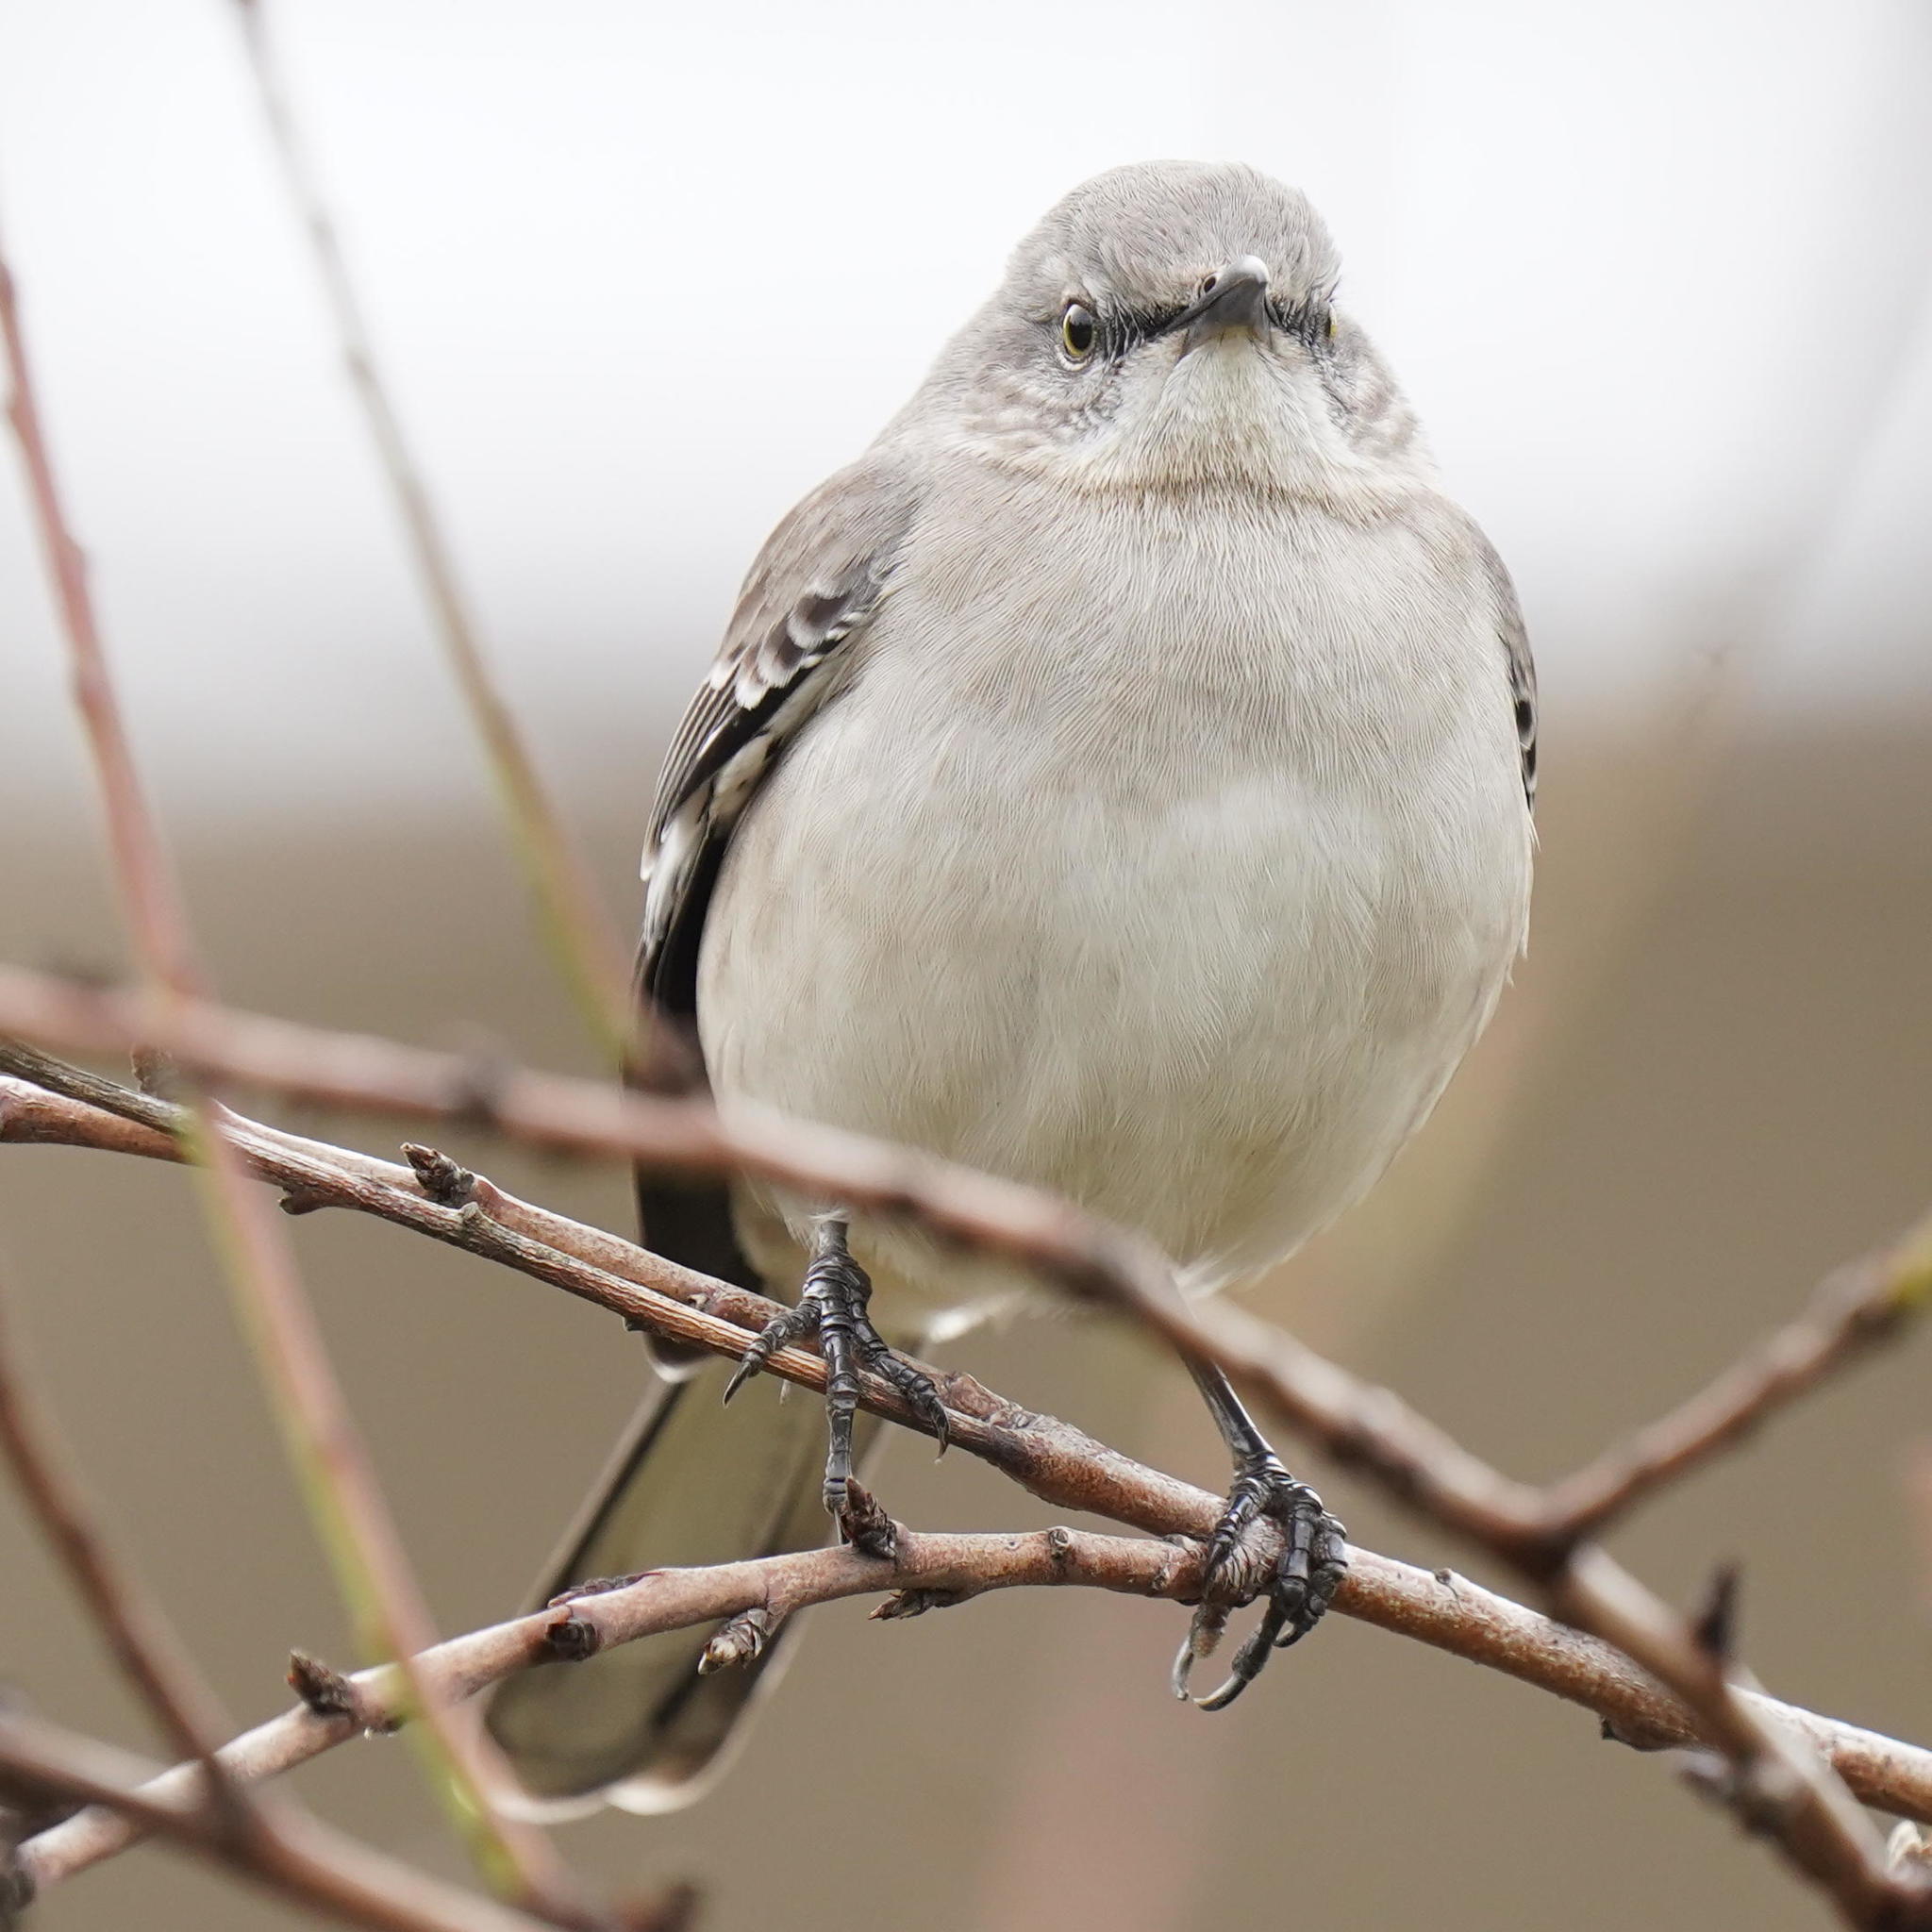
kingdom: Animalia
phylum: Chordata
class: Aves
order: Passeriformes
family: Mimidae
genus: Mimus
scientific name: Mimus polyglottos
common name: Northern mockingbird
